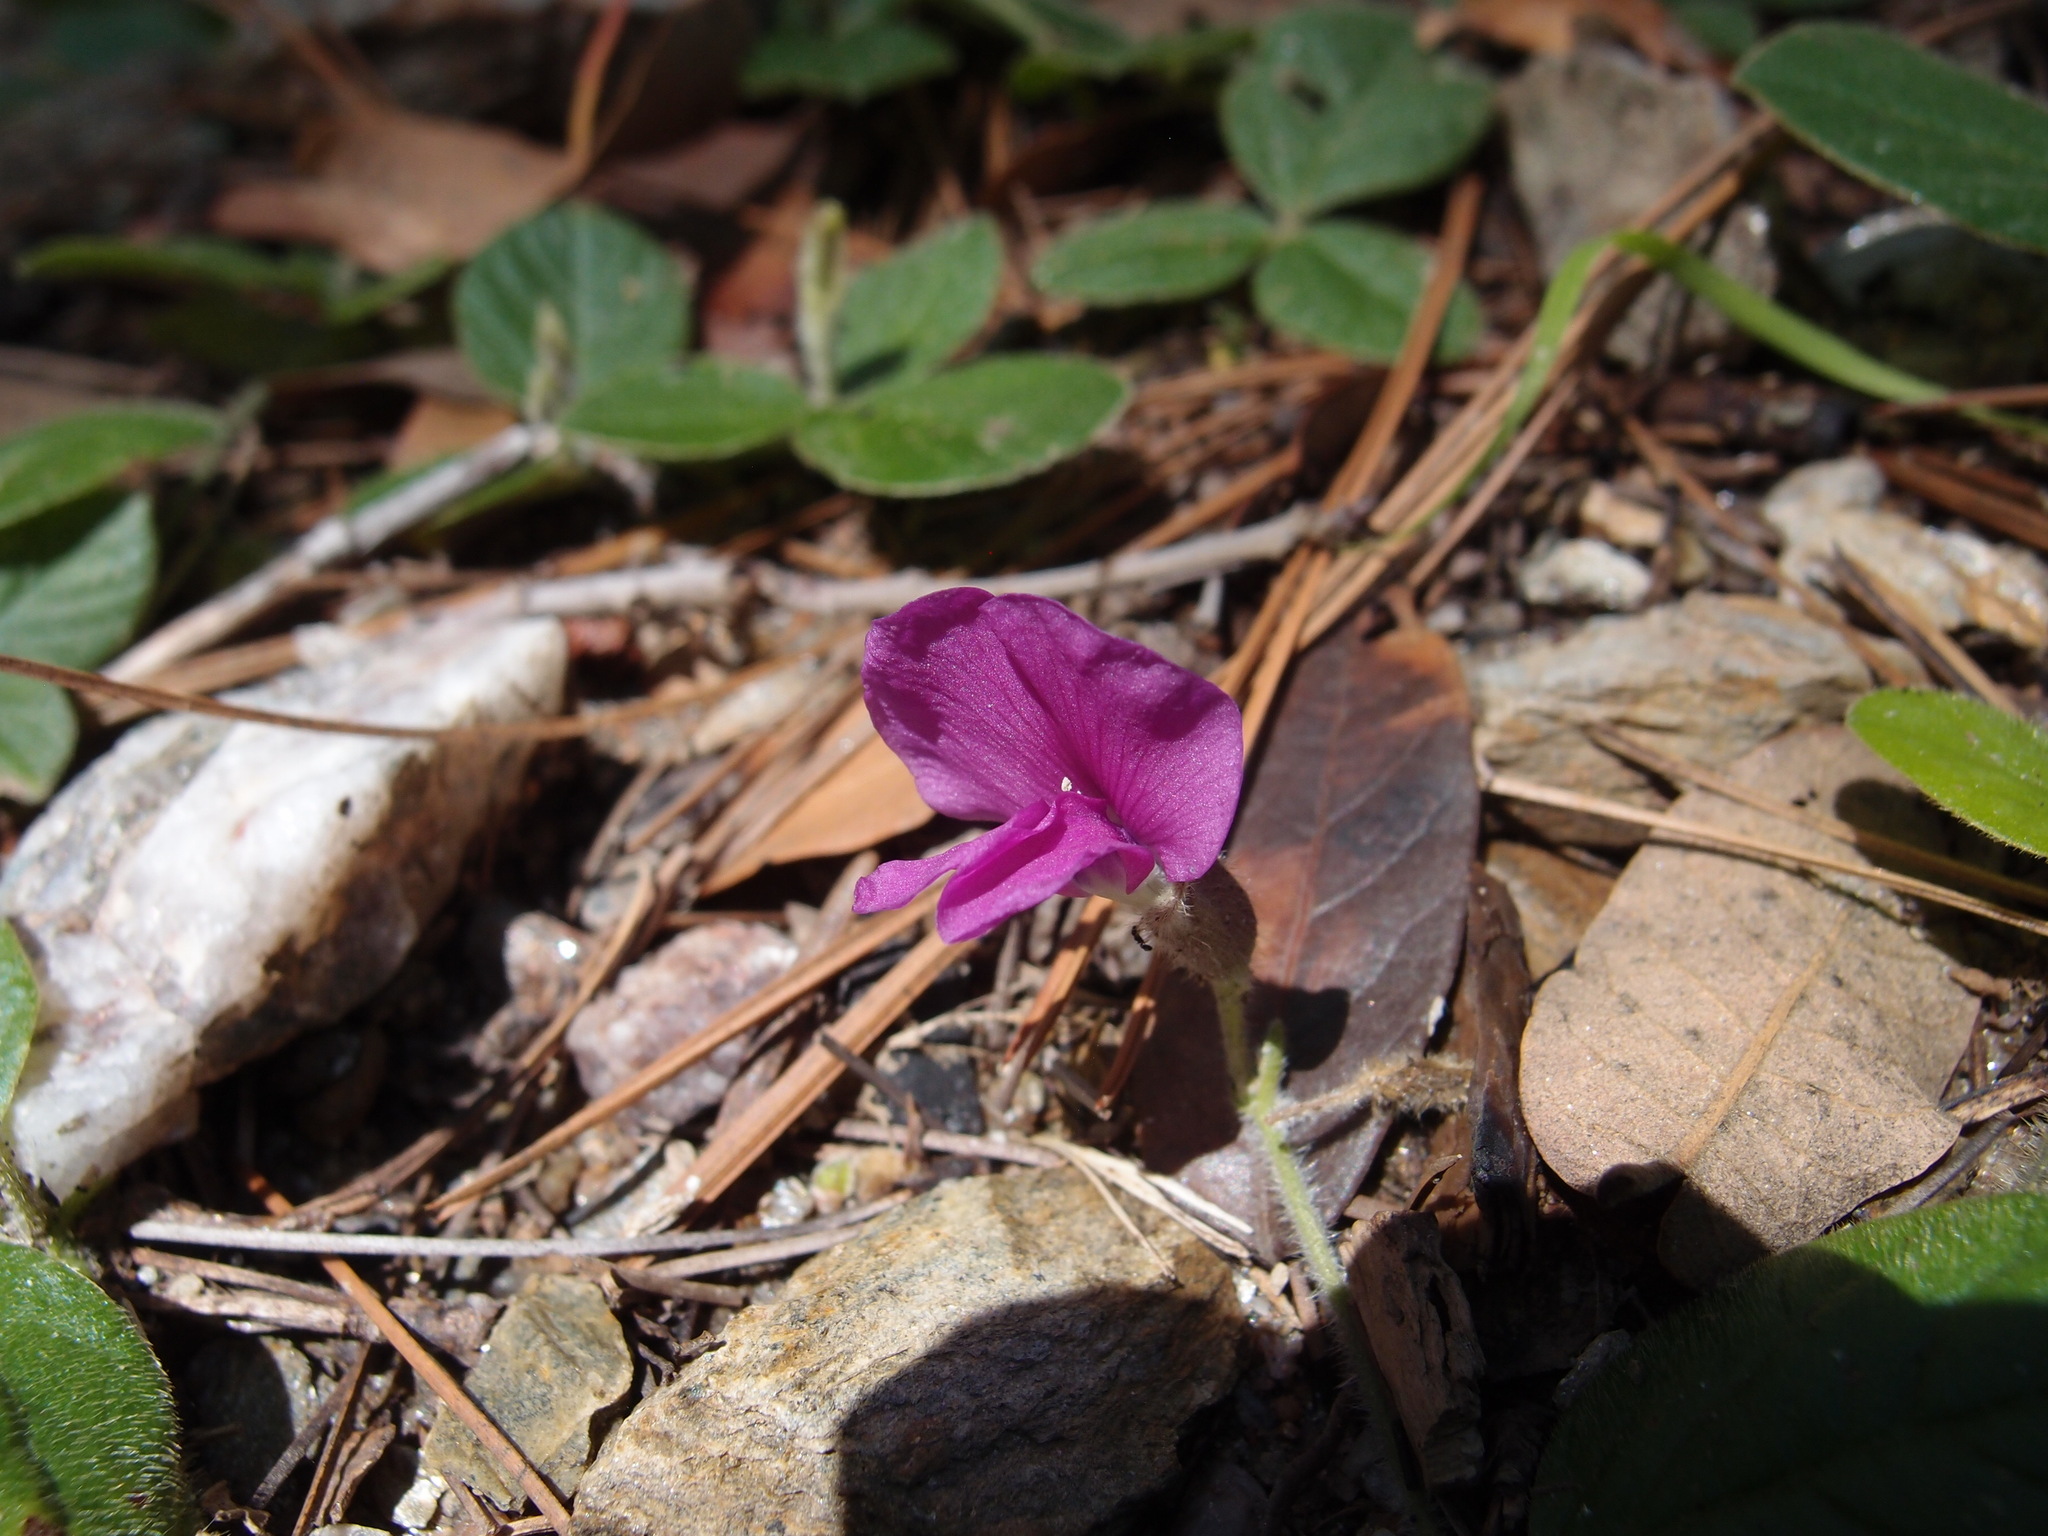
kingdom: Plantae
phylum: Tracheophyta
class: Magnoliopsida
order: Fabales
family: Fabaceae
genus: Cologania
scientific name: Cologania obovata
